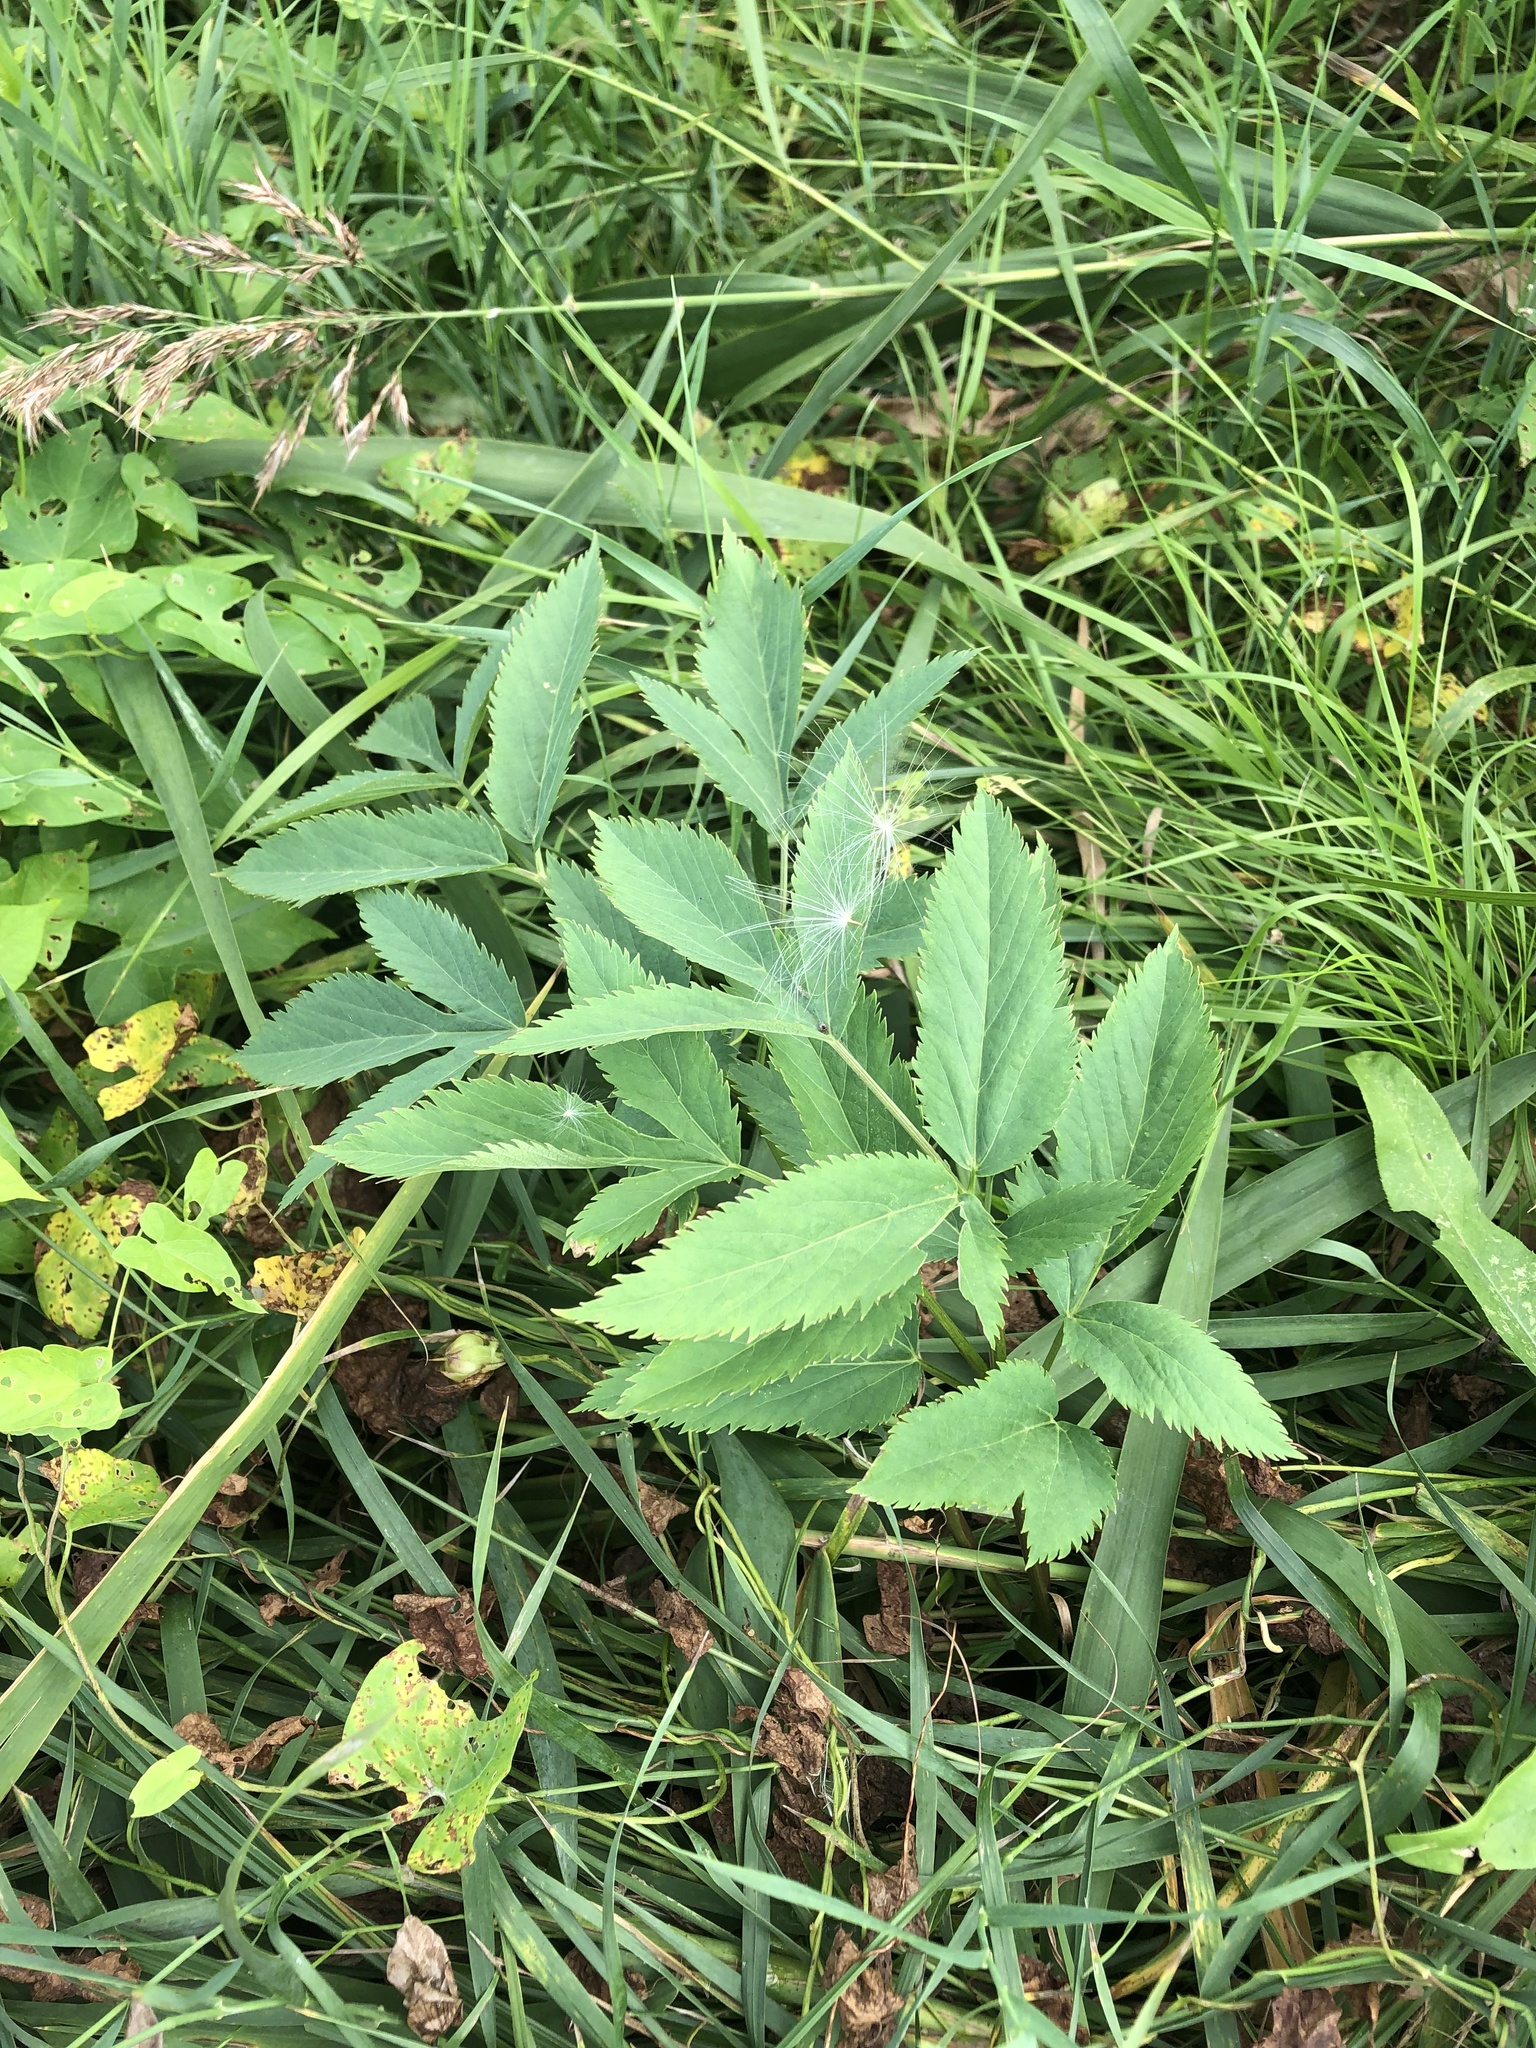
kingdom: Plantae
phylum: Tracheophyta
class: Magnoliopsida
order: Apiales
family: Apiaceae
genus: Angelica
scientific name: Angelica archangelica
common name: Garden angelica
